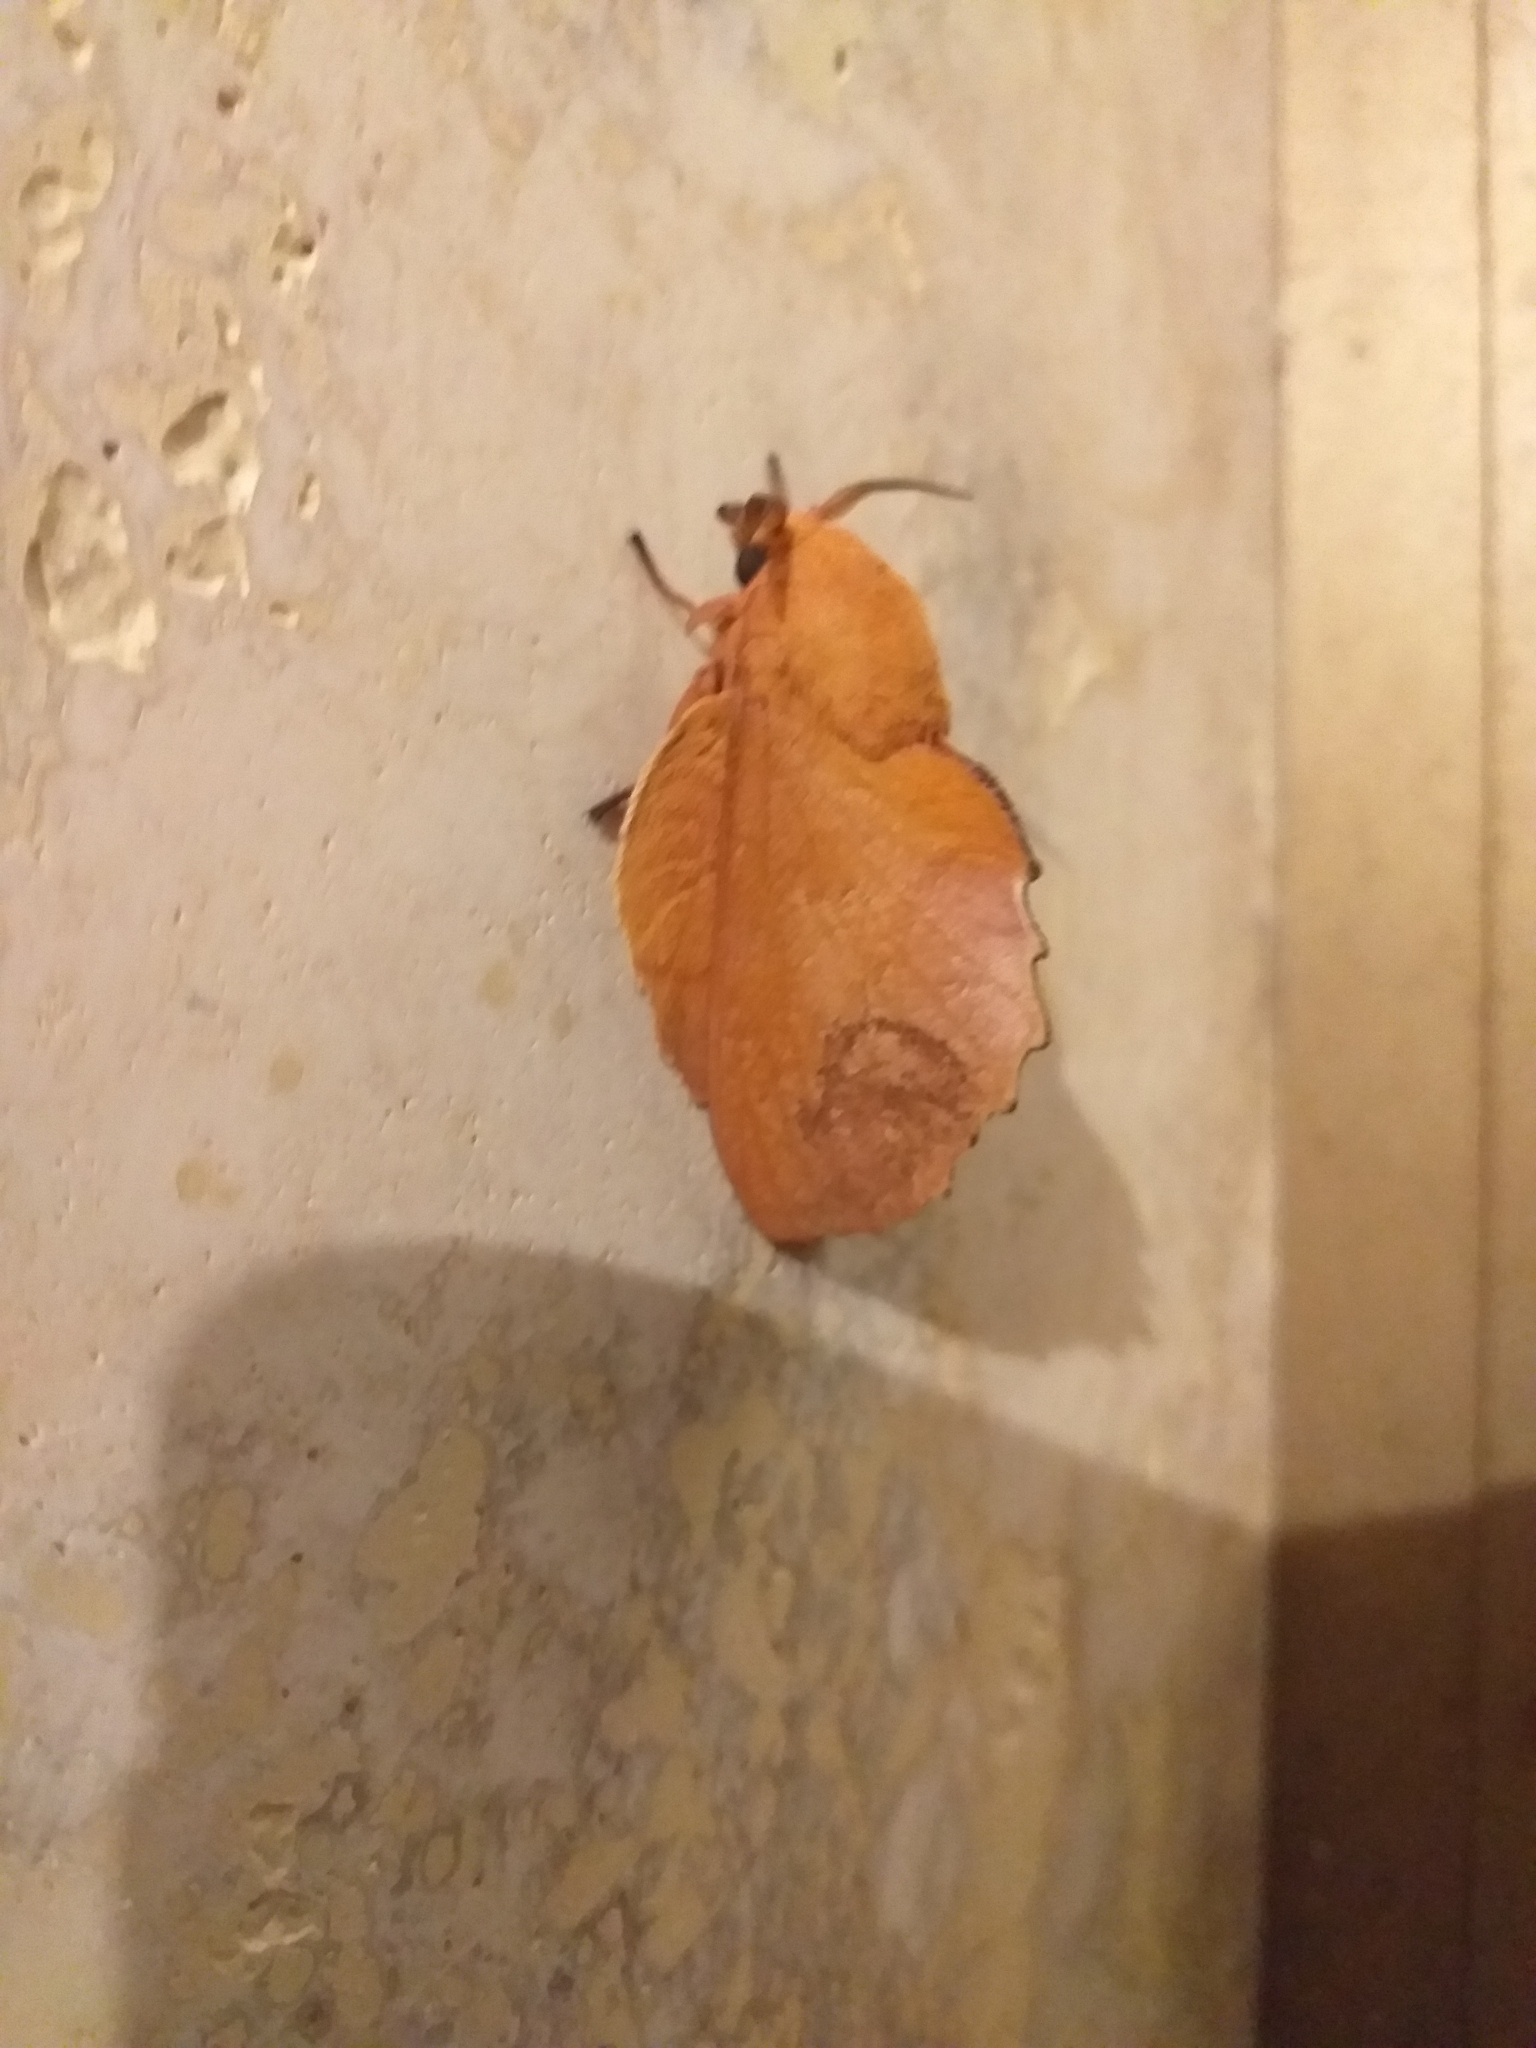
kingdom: Animalia
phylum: Arthropoda
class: Insecta
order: Lepidoptera
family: Lasiocampidae
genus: Gastropacha
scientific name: Gastropacha quercifolia
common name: Lappet
